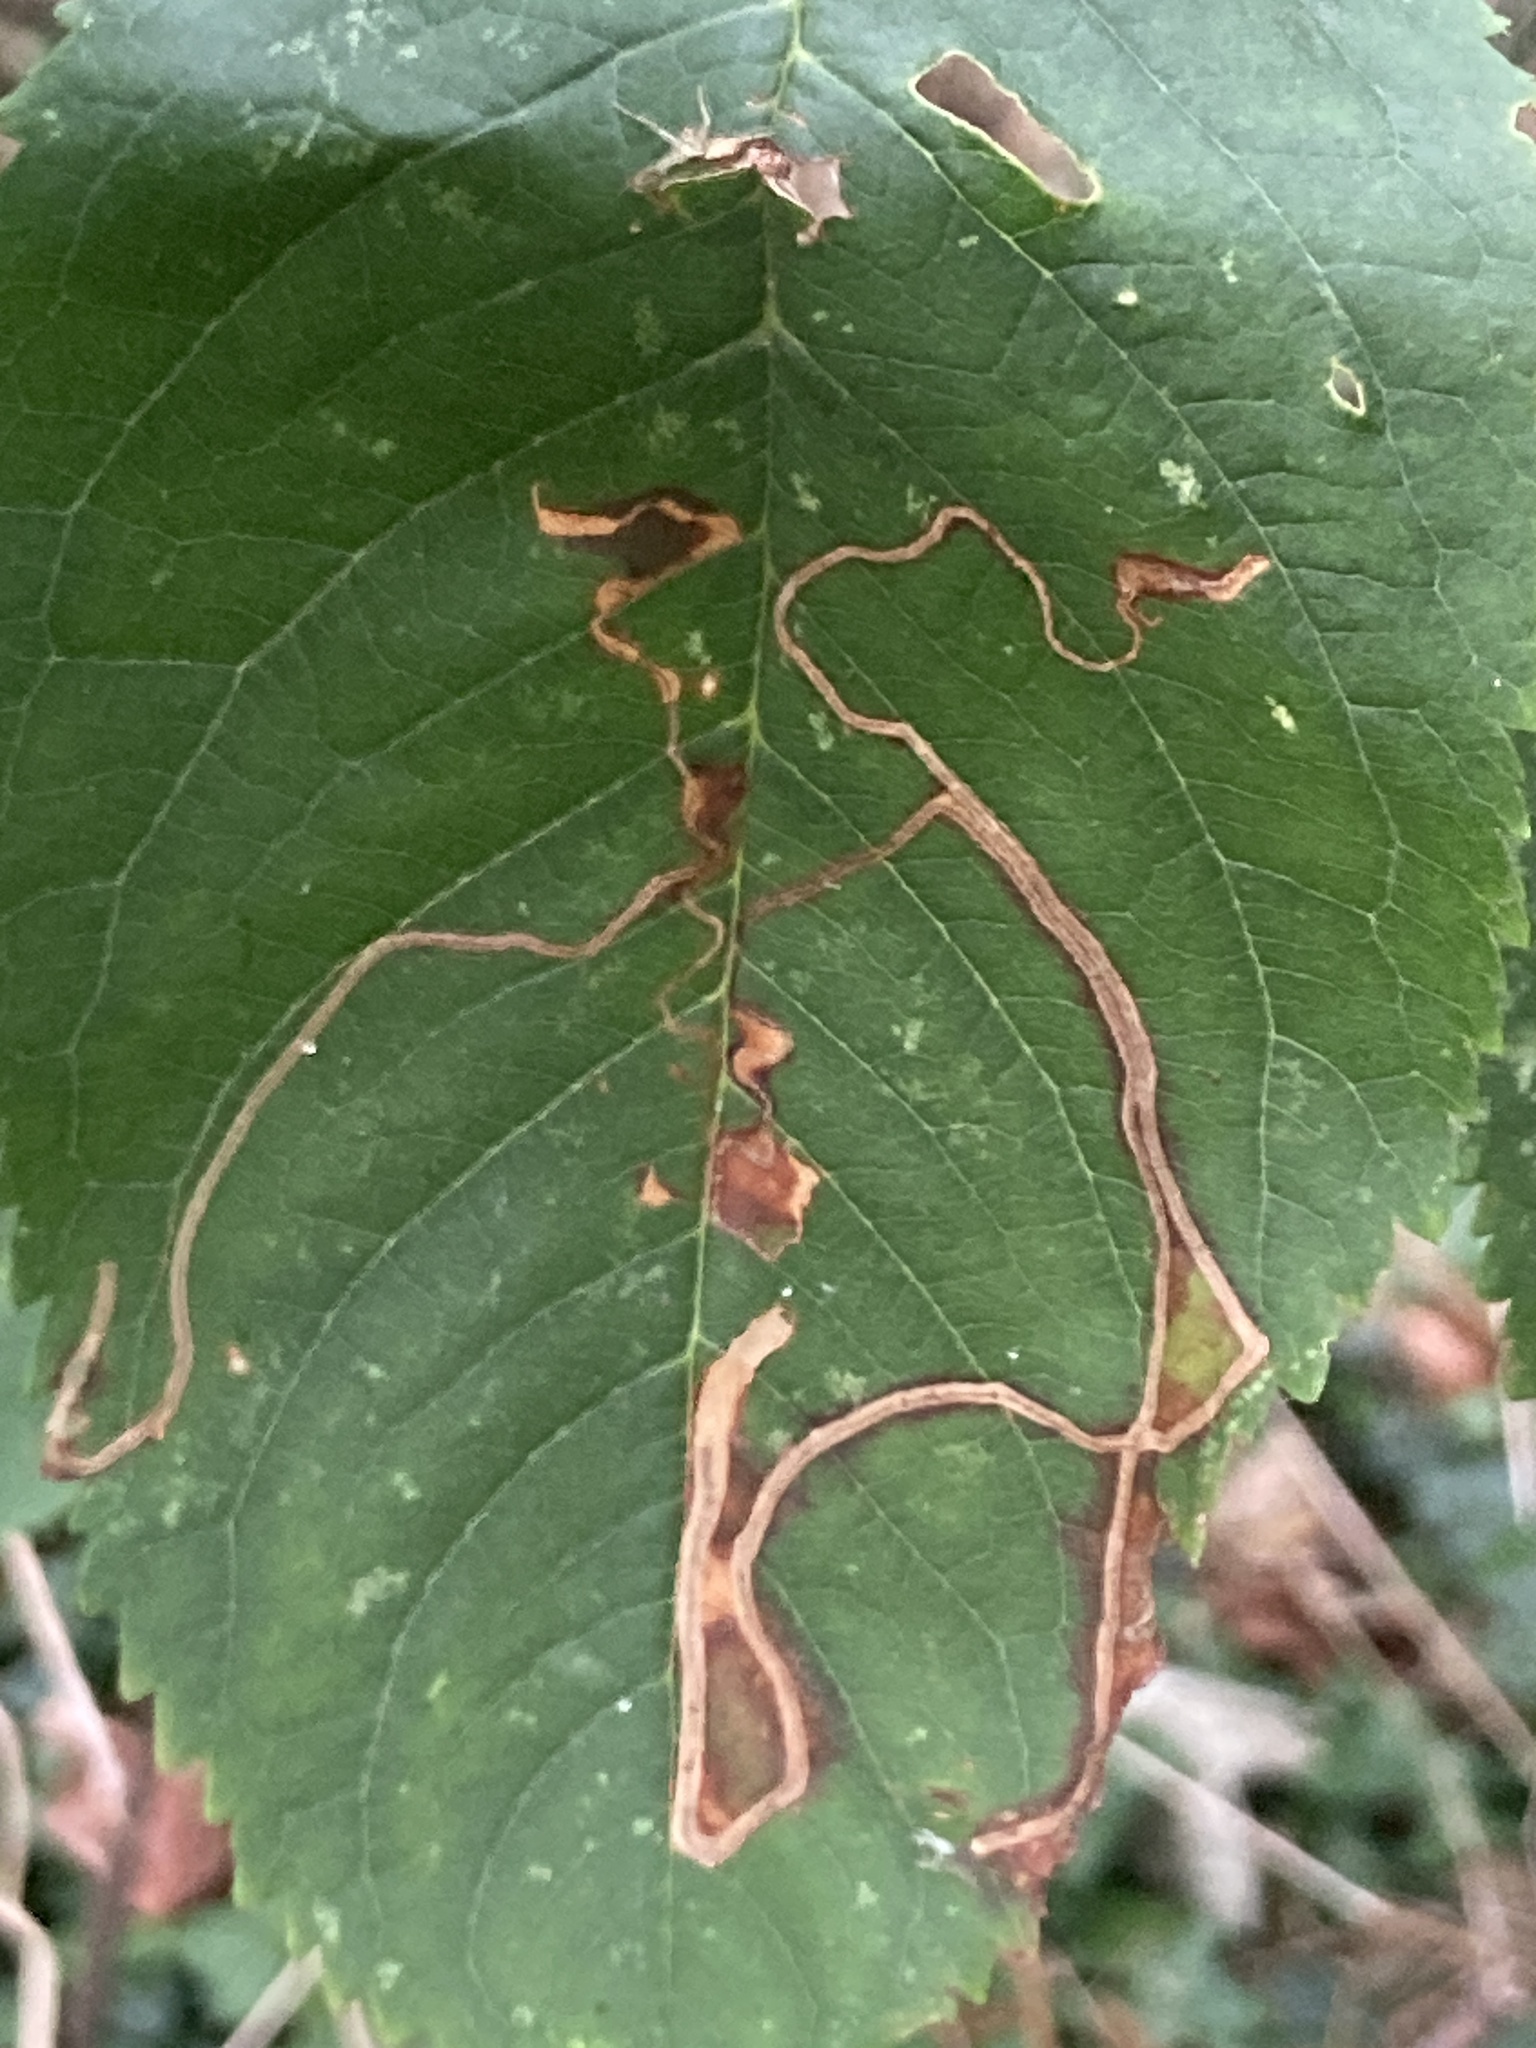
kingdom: Animalia
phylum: Arthropoda
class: Insecta
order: Lepidoptera
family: Lyonetiidae
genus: Lyonetia
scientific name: Lyonetia clerkella
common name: Apple leaf miner
